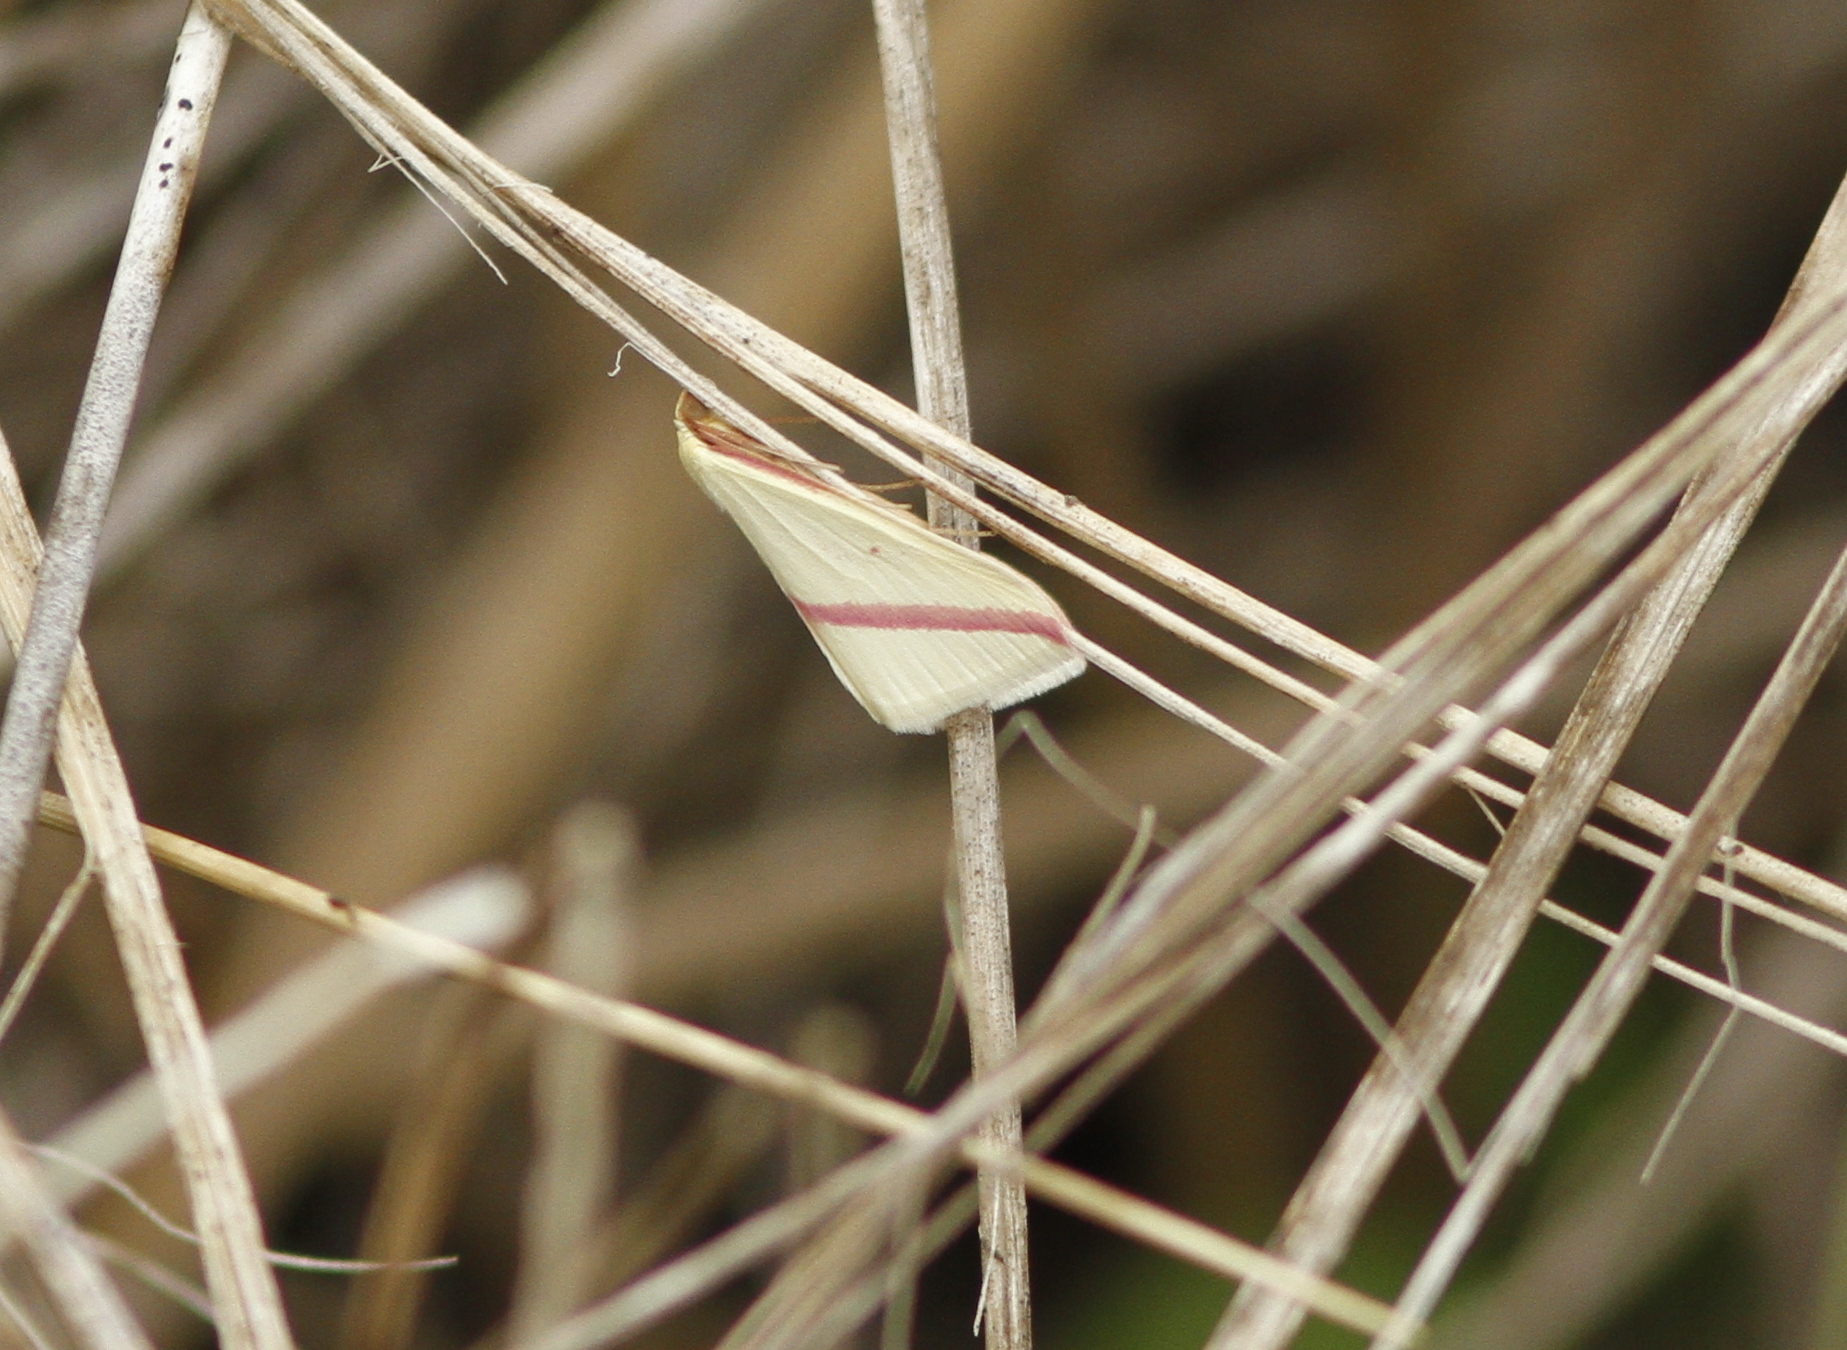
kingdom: Animalia
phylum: Arthropoda
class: Insecta
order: Lepidoptera
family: Geometridae
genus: Rhodometra
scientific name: Rhodometra sacraria
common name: Vestal
